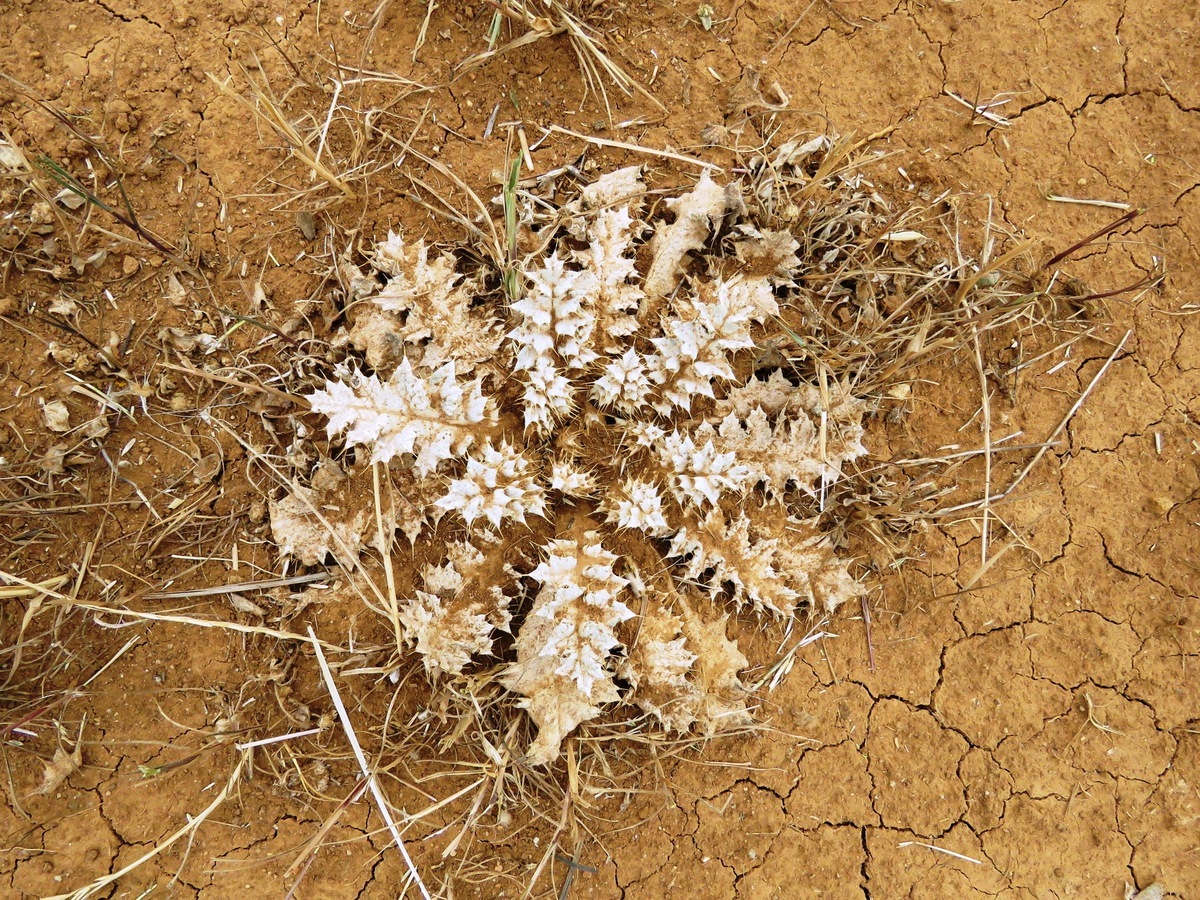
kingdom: Plantae
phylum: Tracheophyta
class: Magnoliopsida
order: Asterales
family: Asteraceae
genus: Onopordum
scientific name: Onopordum acaulon
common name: Horse thistle
